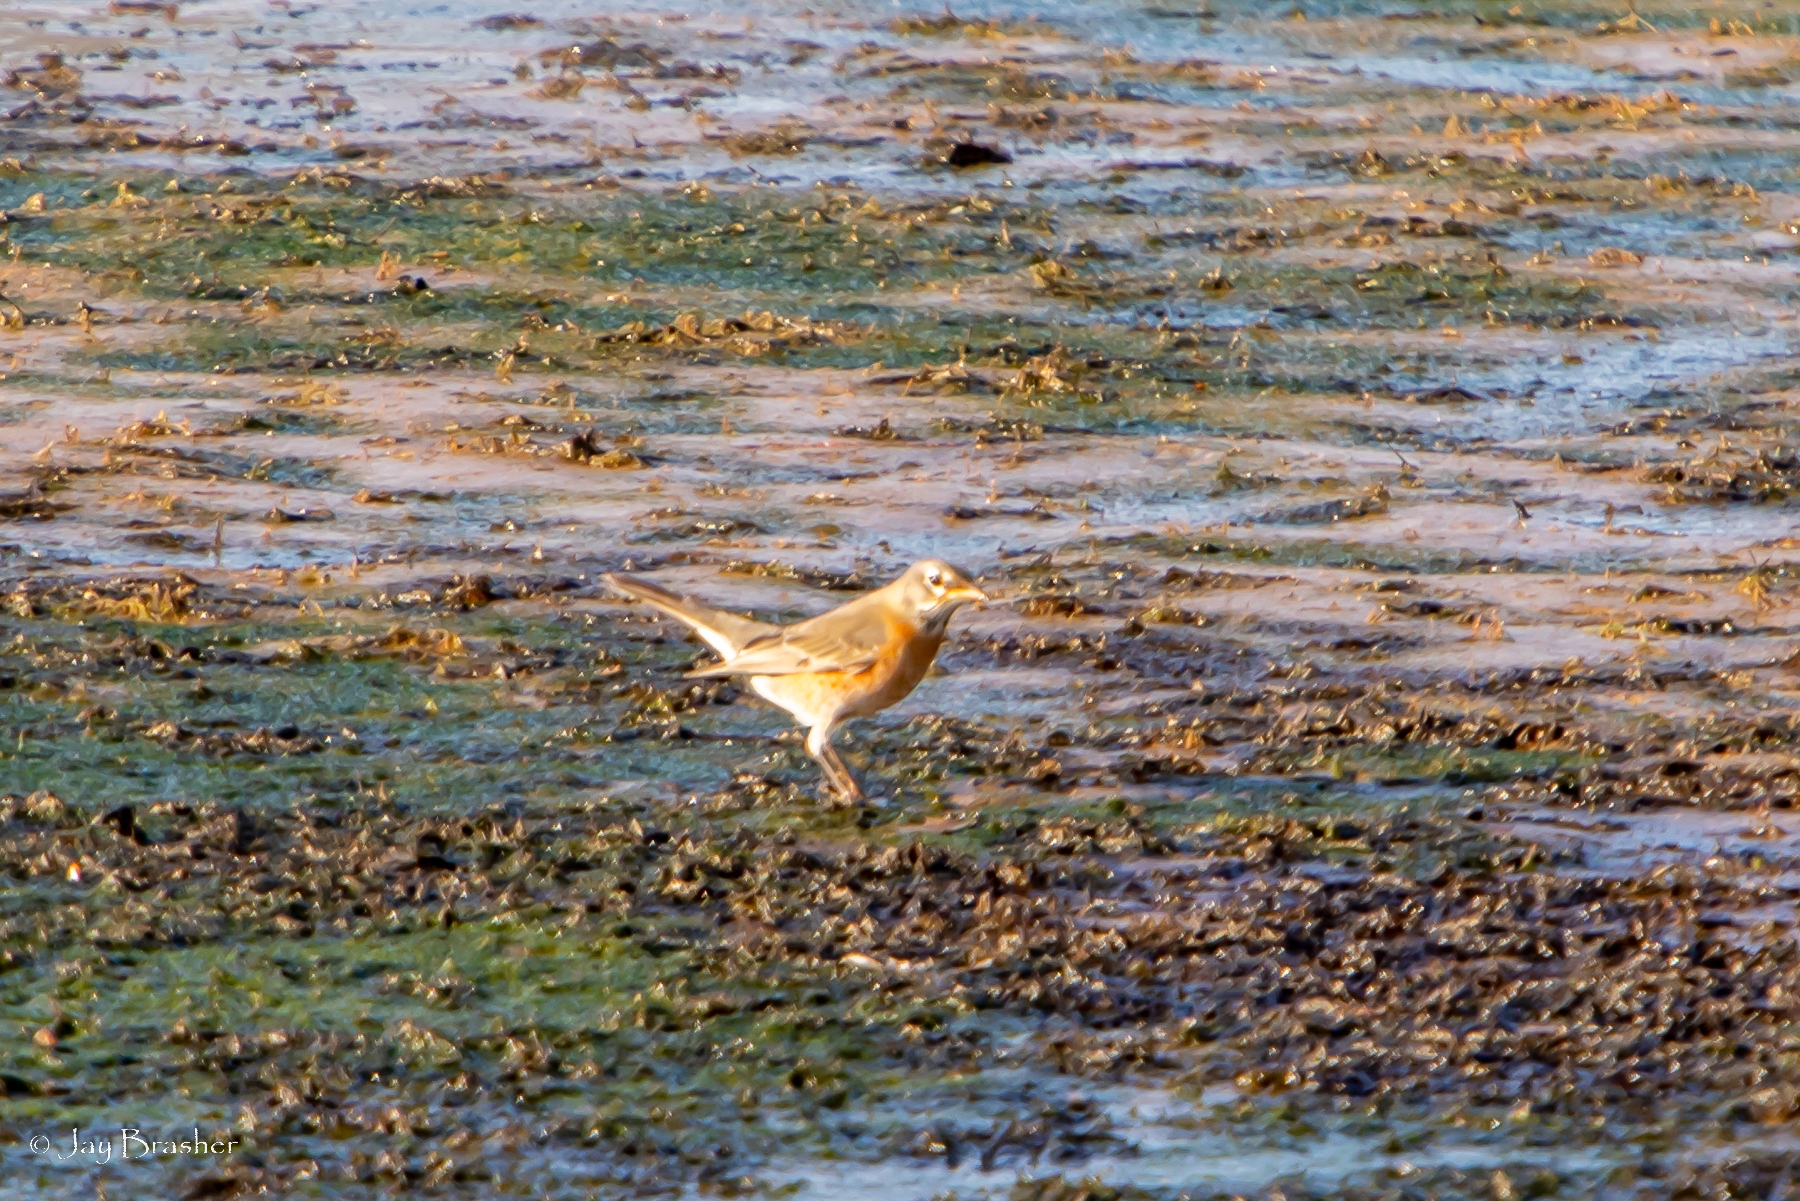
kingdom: Animalia
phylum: Chordata
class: Aves
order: Passeriformes
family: Turdidae
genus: Turdus
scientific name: Turdus migratorius
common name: American robin
